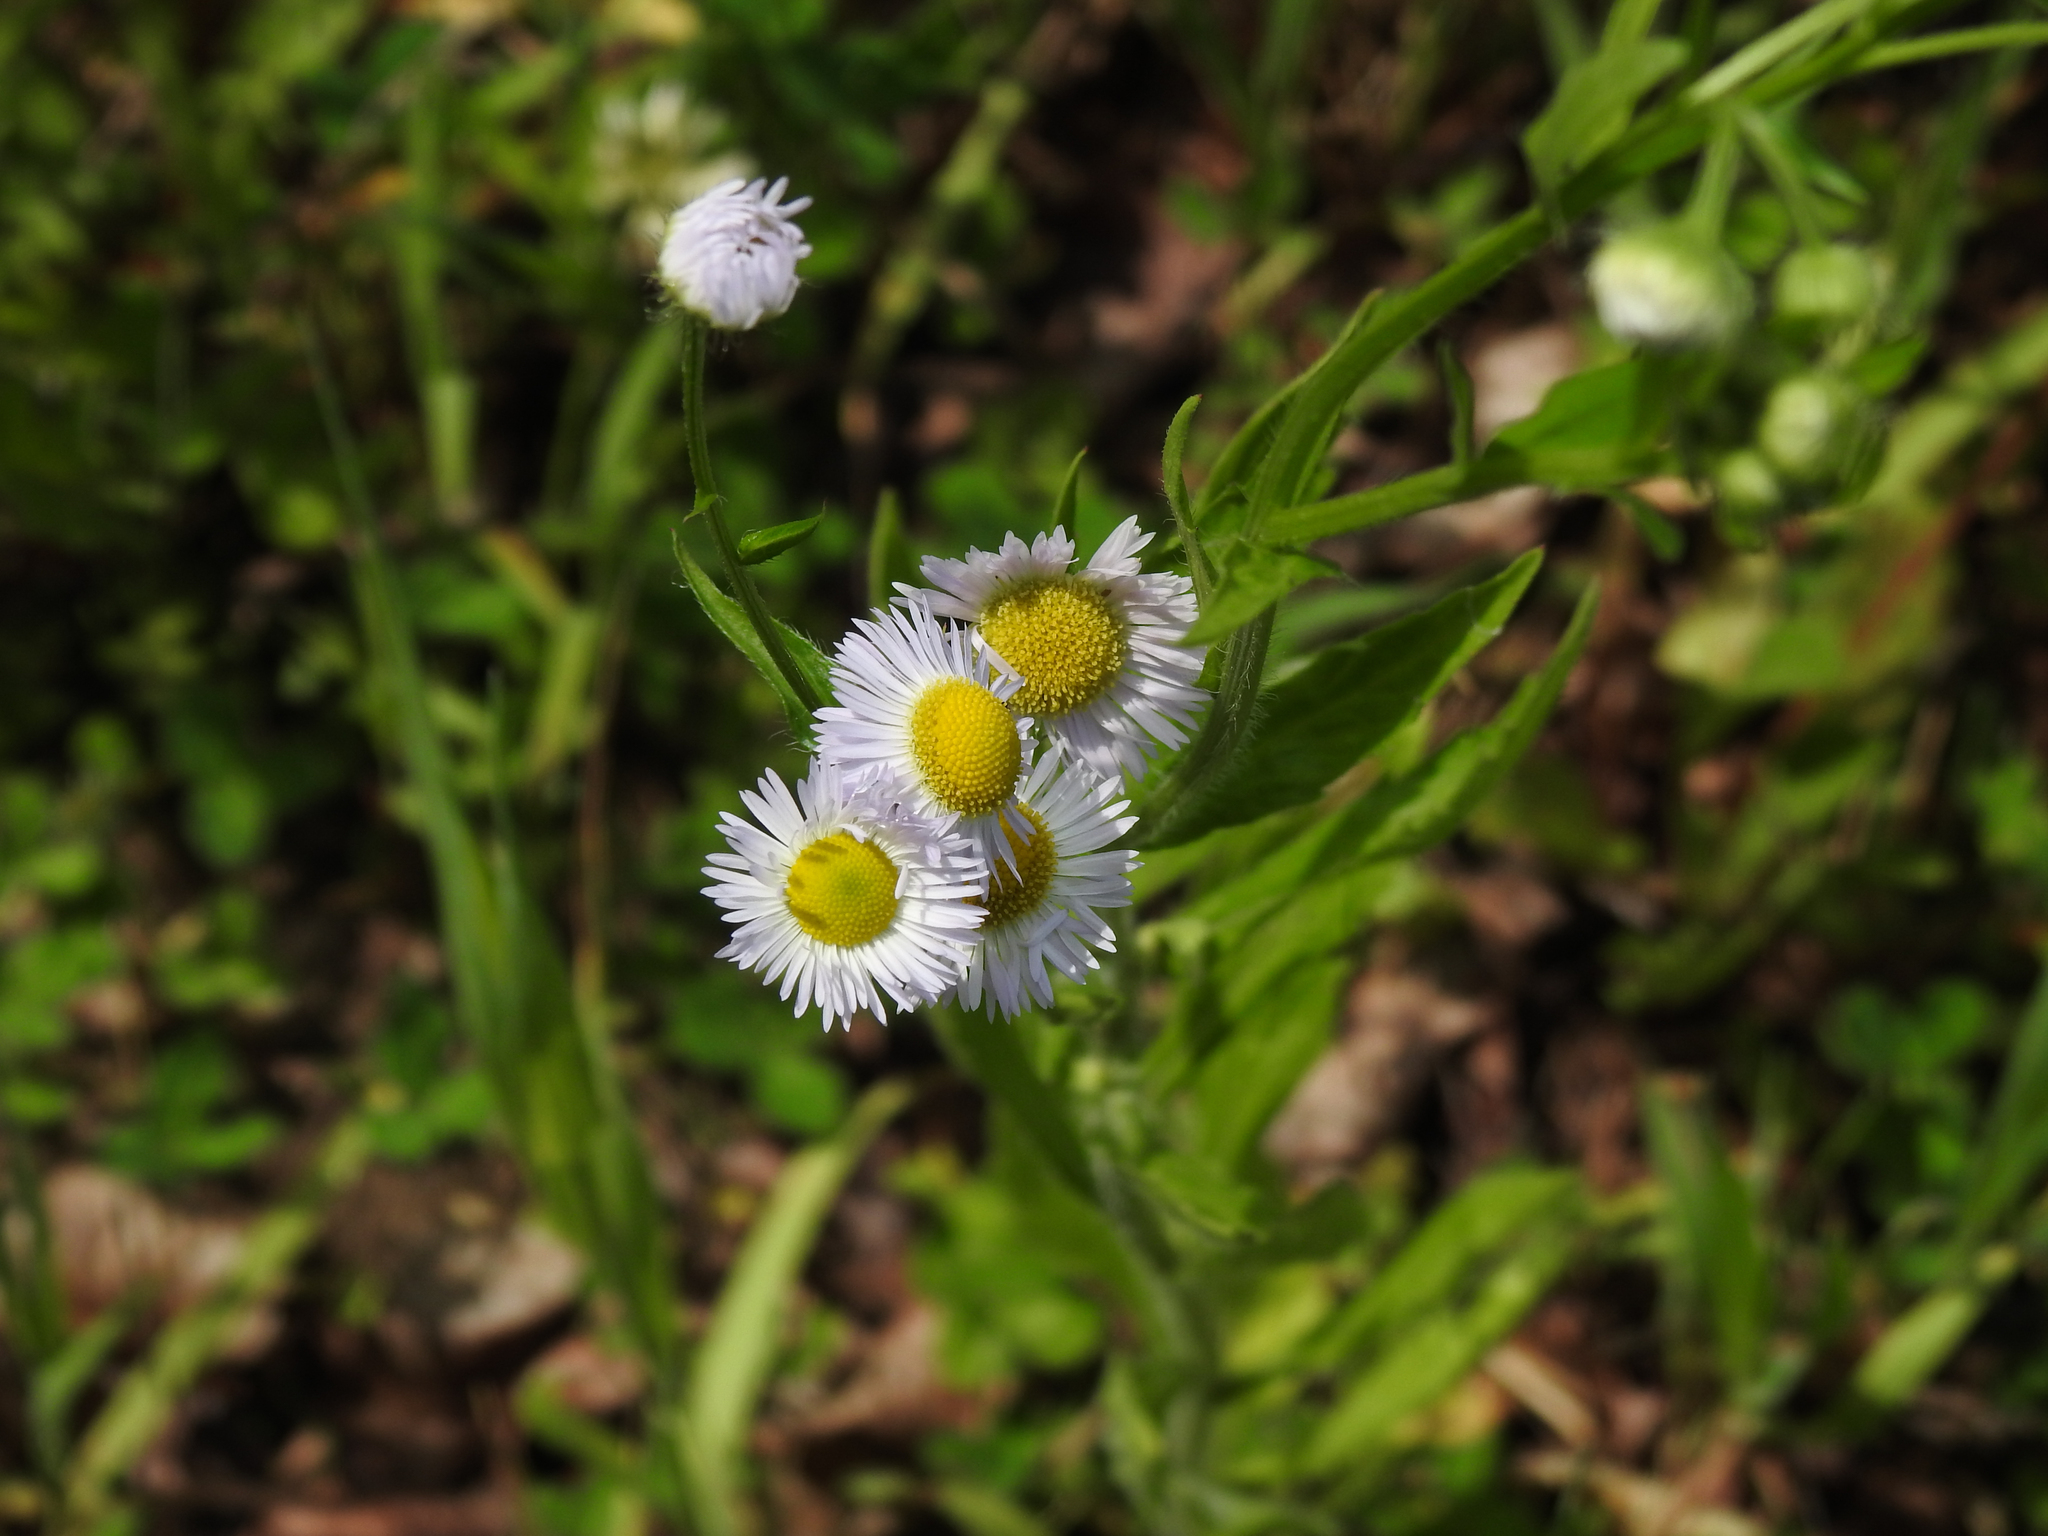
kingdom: Plantae
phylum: Tracheophyta
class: Magnoliopsida
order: Asterales
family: Asteraceae
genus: Erigeron
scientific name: Erigeron philadelphicus
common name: Robin's-plantain
